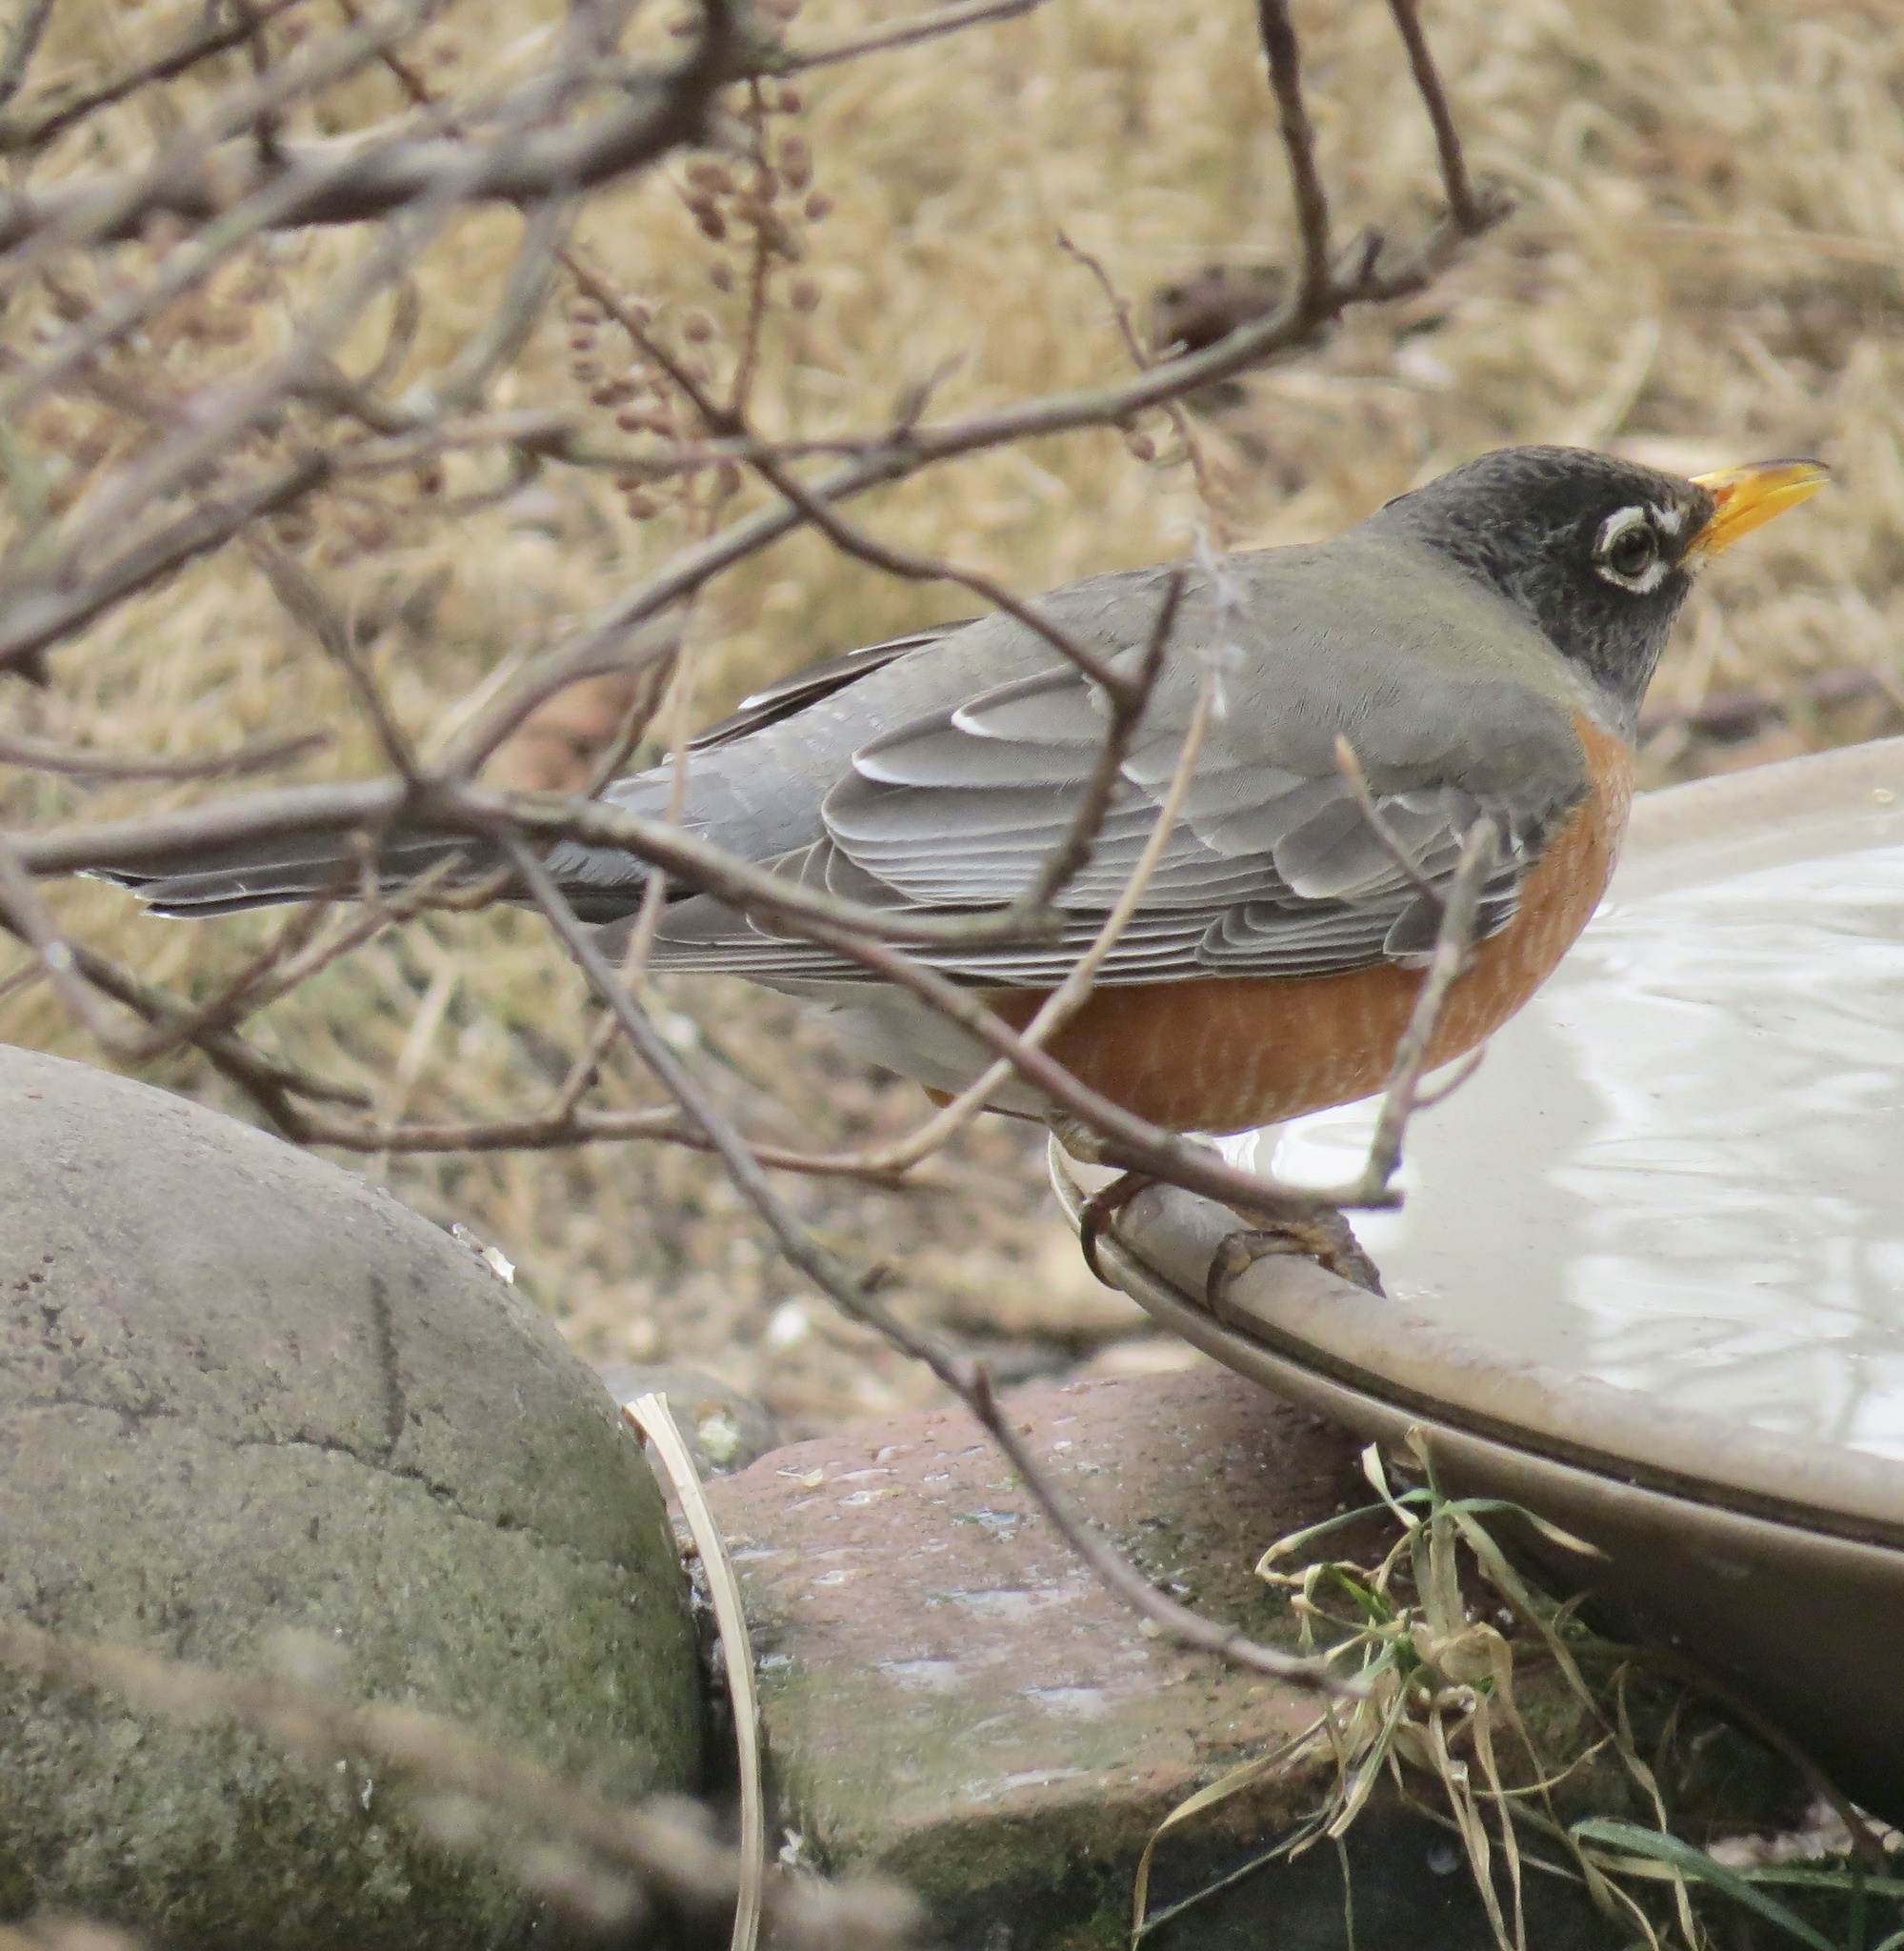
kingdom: Animalia
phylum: Chordata
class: Aves
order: Passeriformes
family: Turdidae
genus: Turdus
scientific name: Turdus migratorius
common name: American robin
